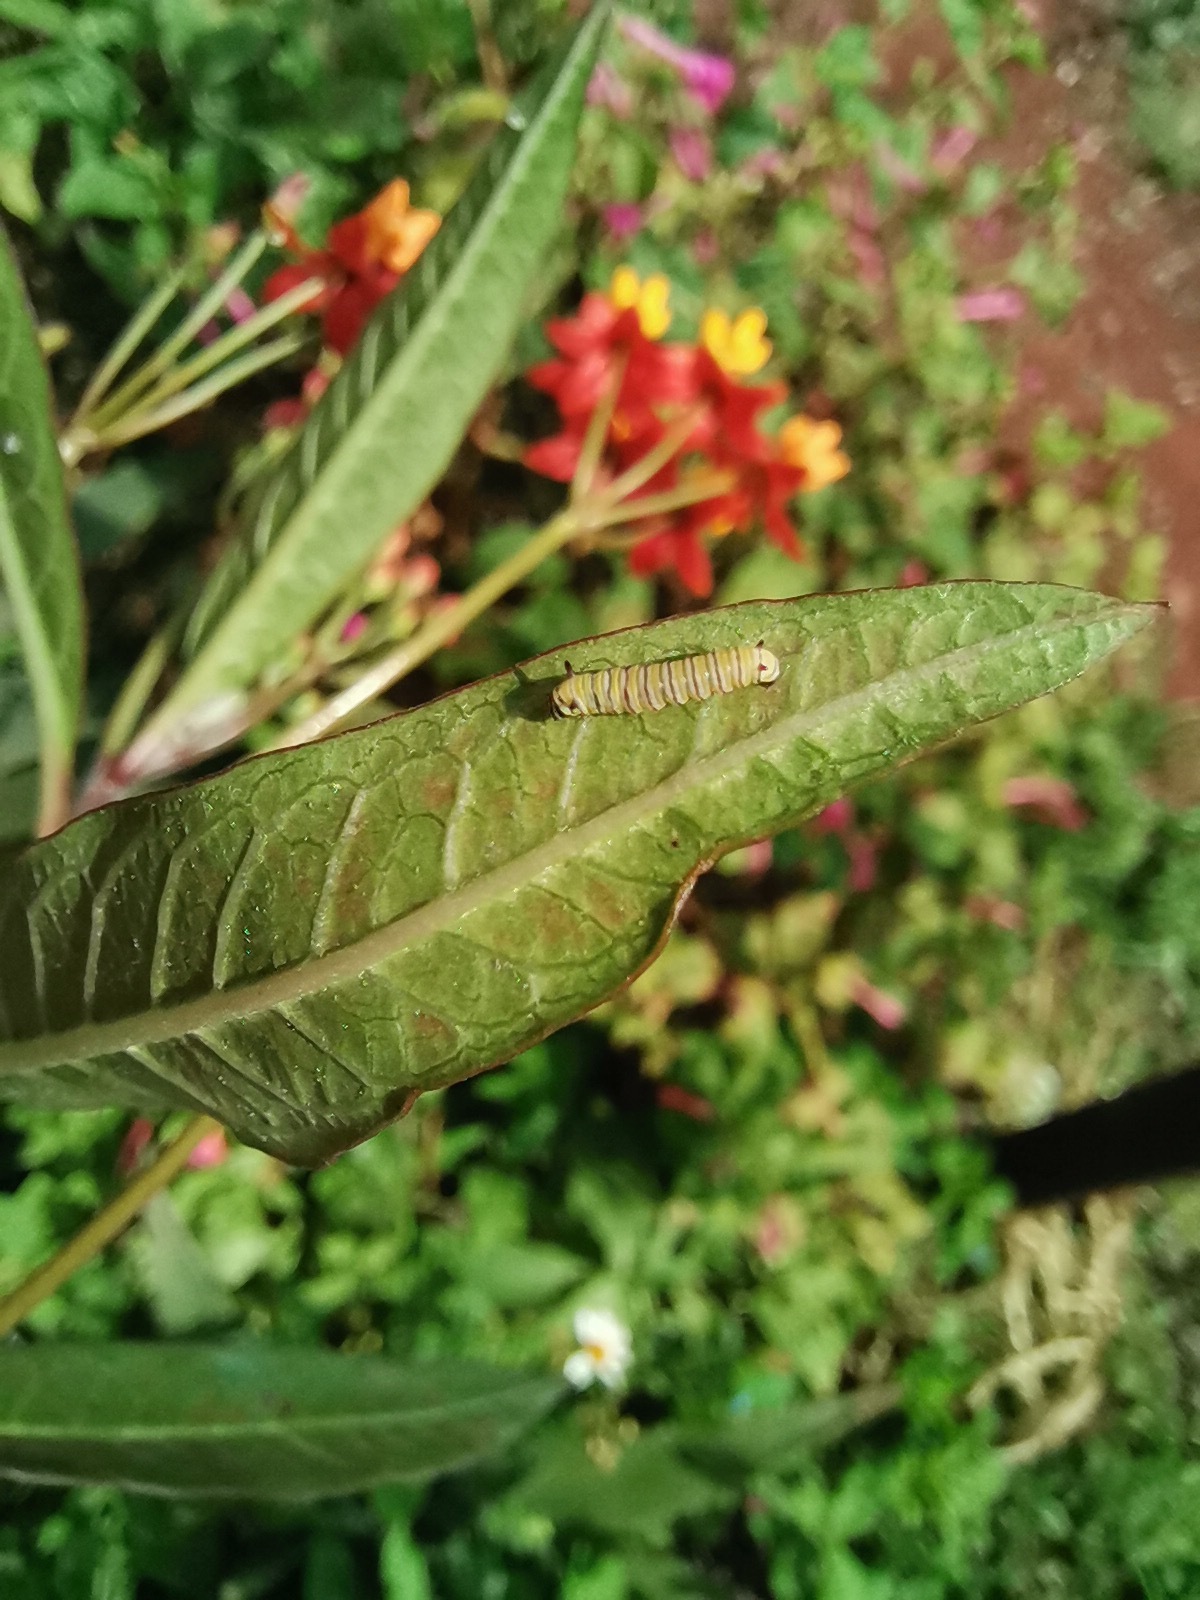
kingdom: Animalia
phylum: Arthropoda
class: Insecta
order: Lepidoptera
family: Nymphalidae
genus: Danaus
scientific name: Danaus plexippus
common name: Monarch
